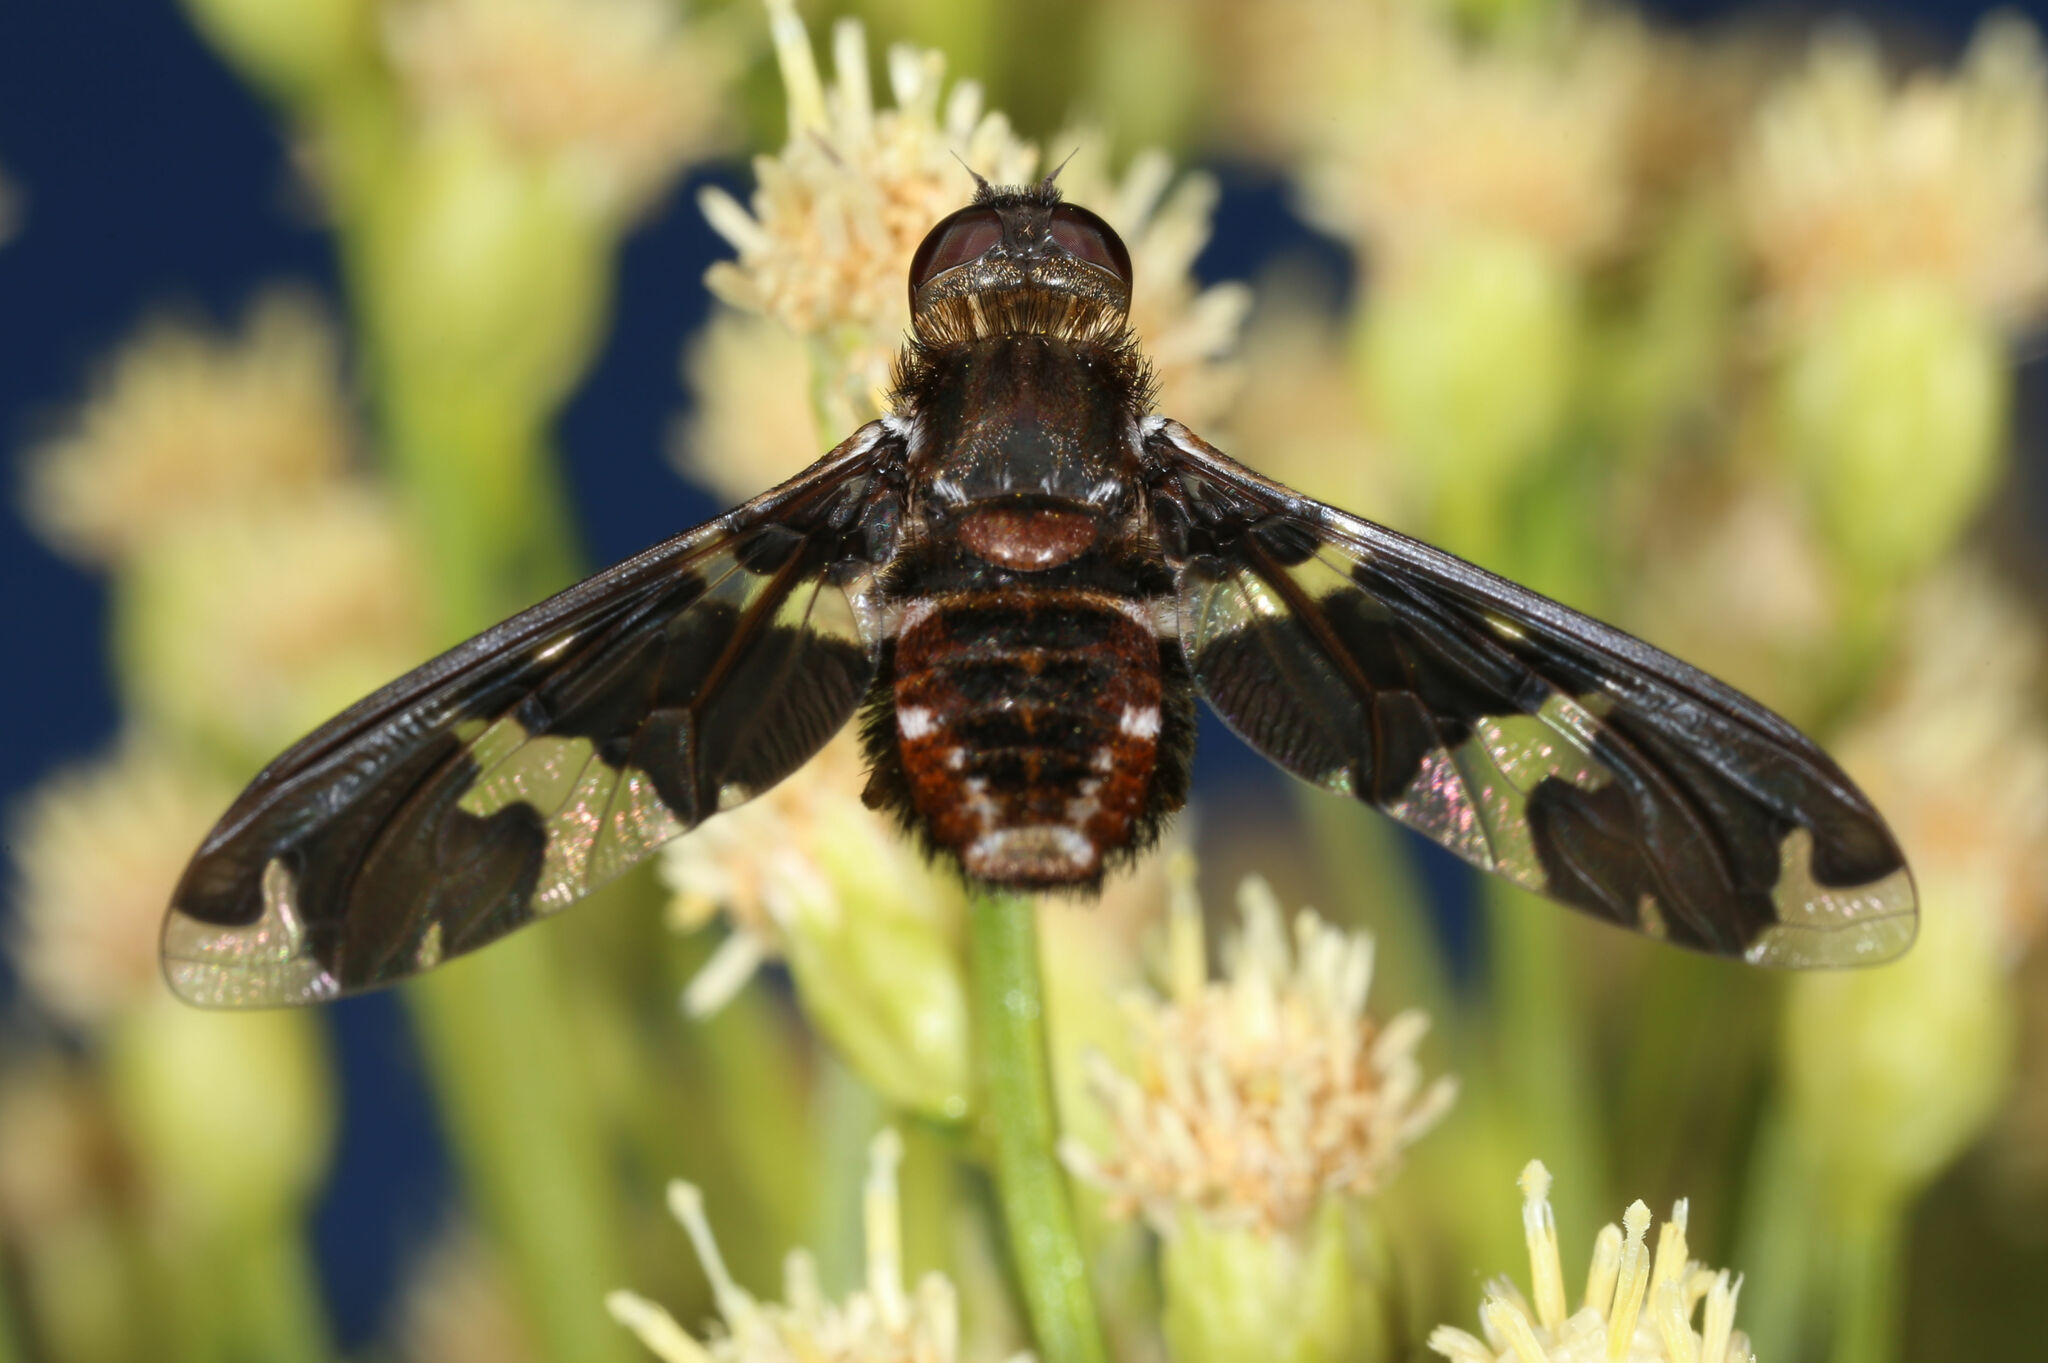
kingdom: Animalia
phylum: Arthropoda
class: Insecta
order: Diptera
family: Bombyliidae
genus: Exoprosopa
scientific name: Exoprosopa dorcadion
